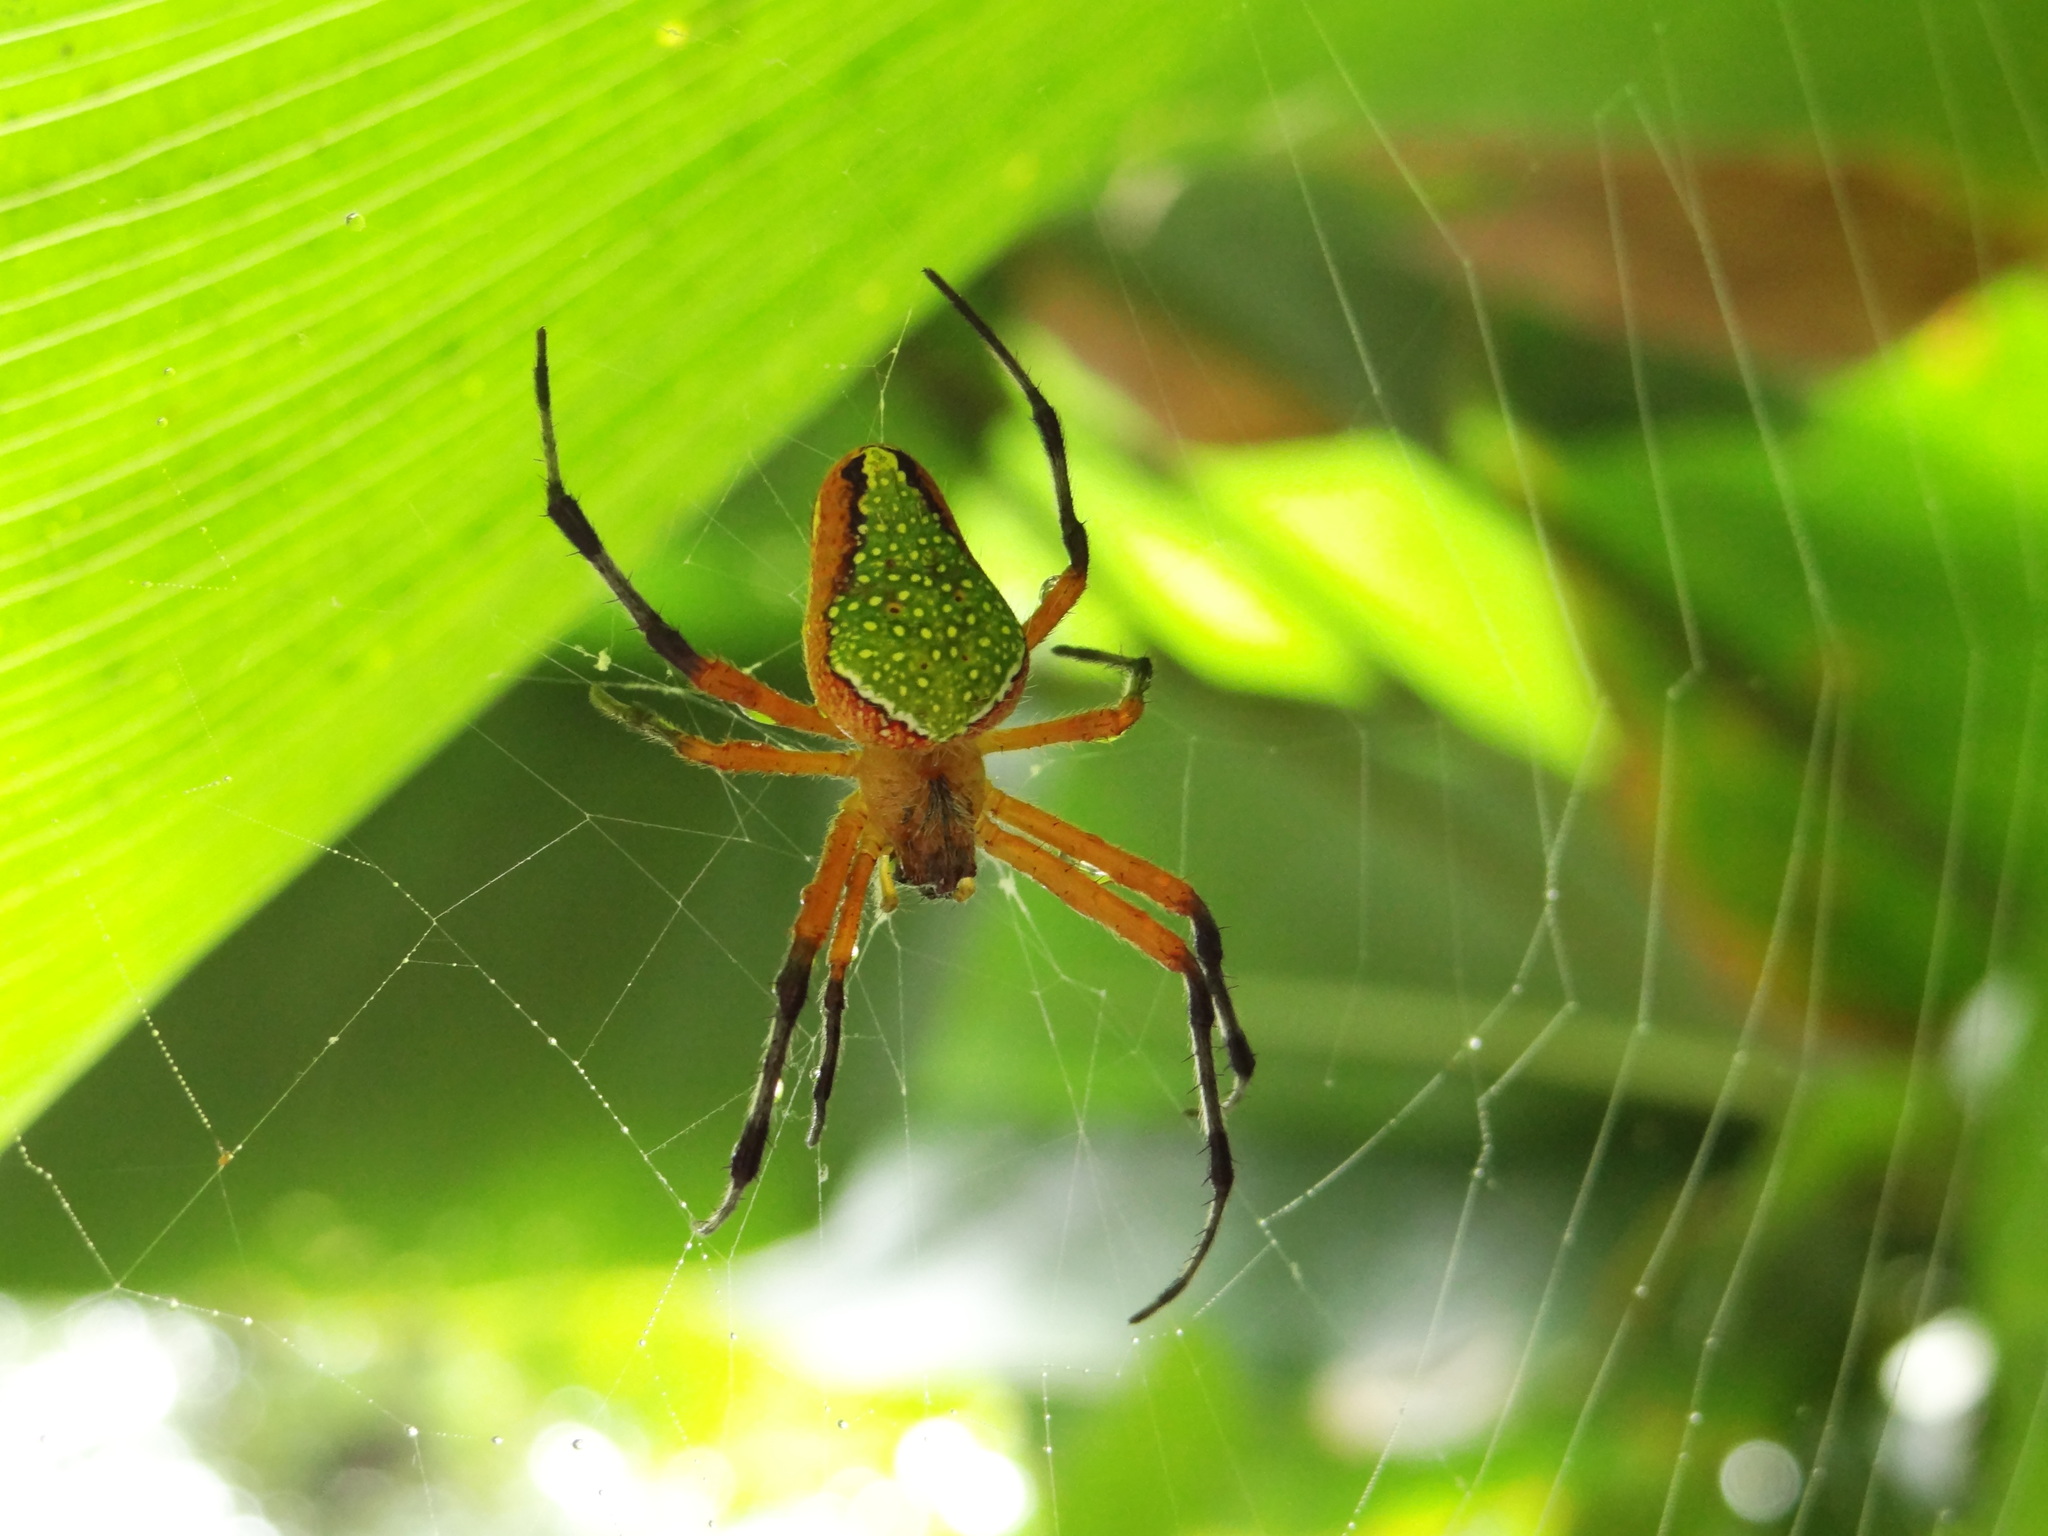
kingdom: Animalia
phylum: Arthropoda
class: Arachnida
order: Araneae
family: Araneidae
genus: Eriophora
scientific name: Eriophora nephiloides
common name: Orb weavers
